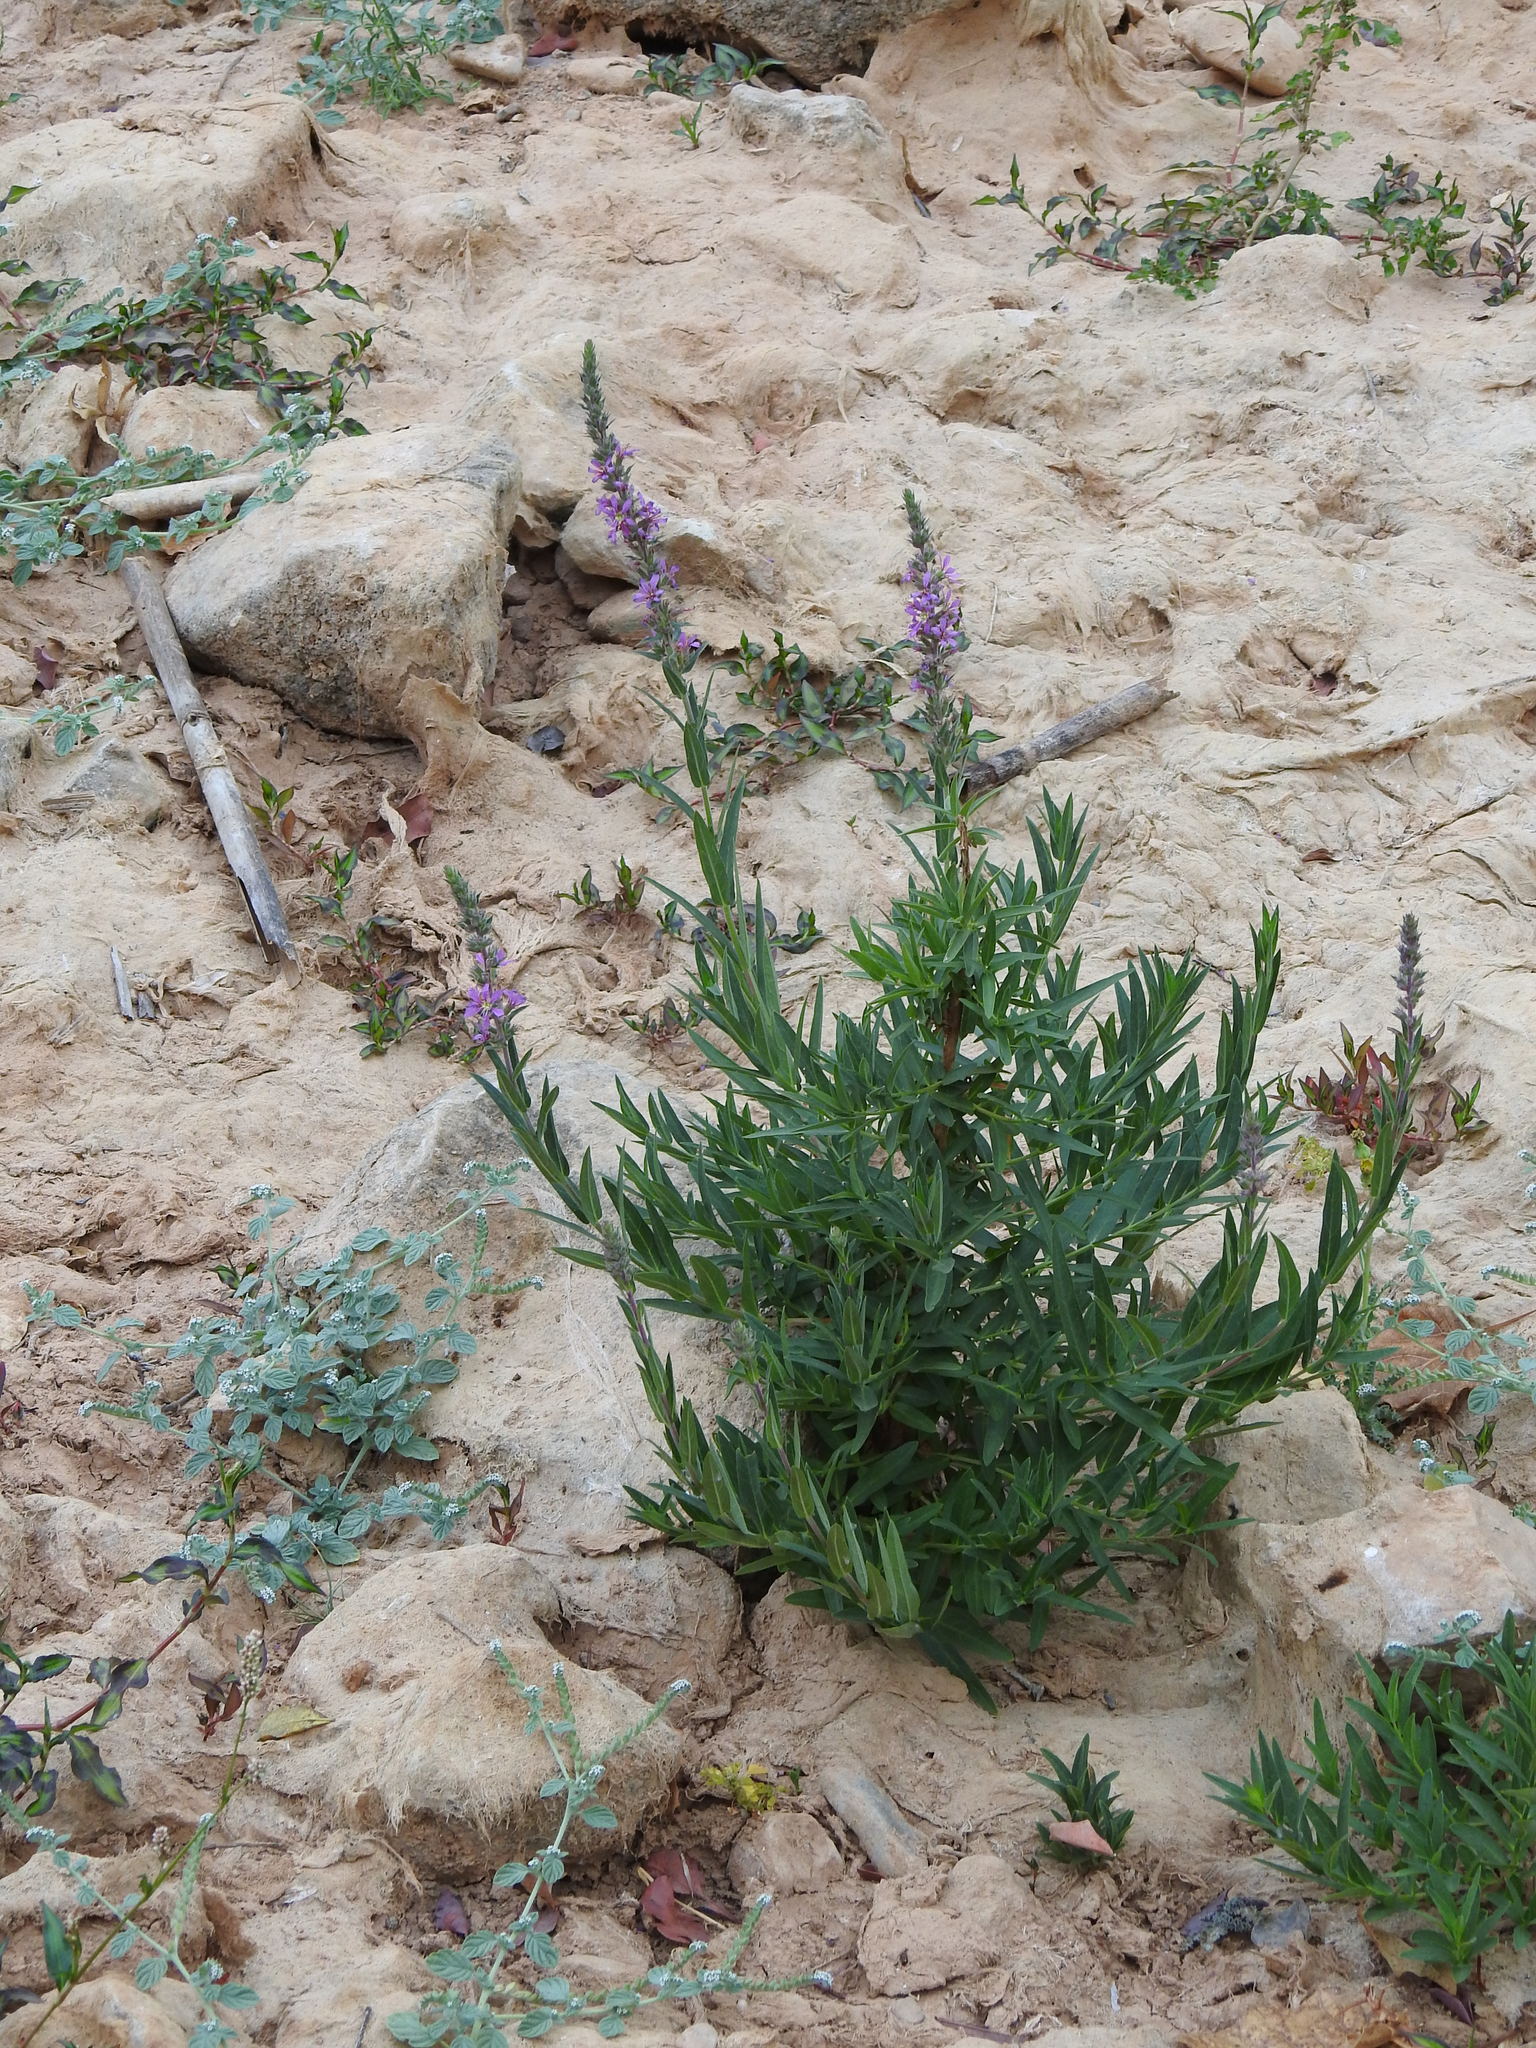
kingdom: Plantae
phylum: Tracheophyta
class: Magnoliopsida
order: Myrtales
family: Lythraceae
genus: Lythrum
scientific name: Lythrum salicaria
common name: Purple loosestrife
